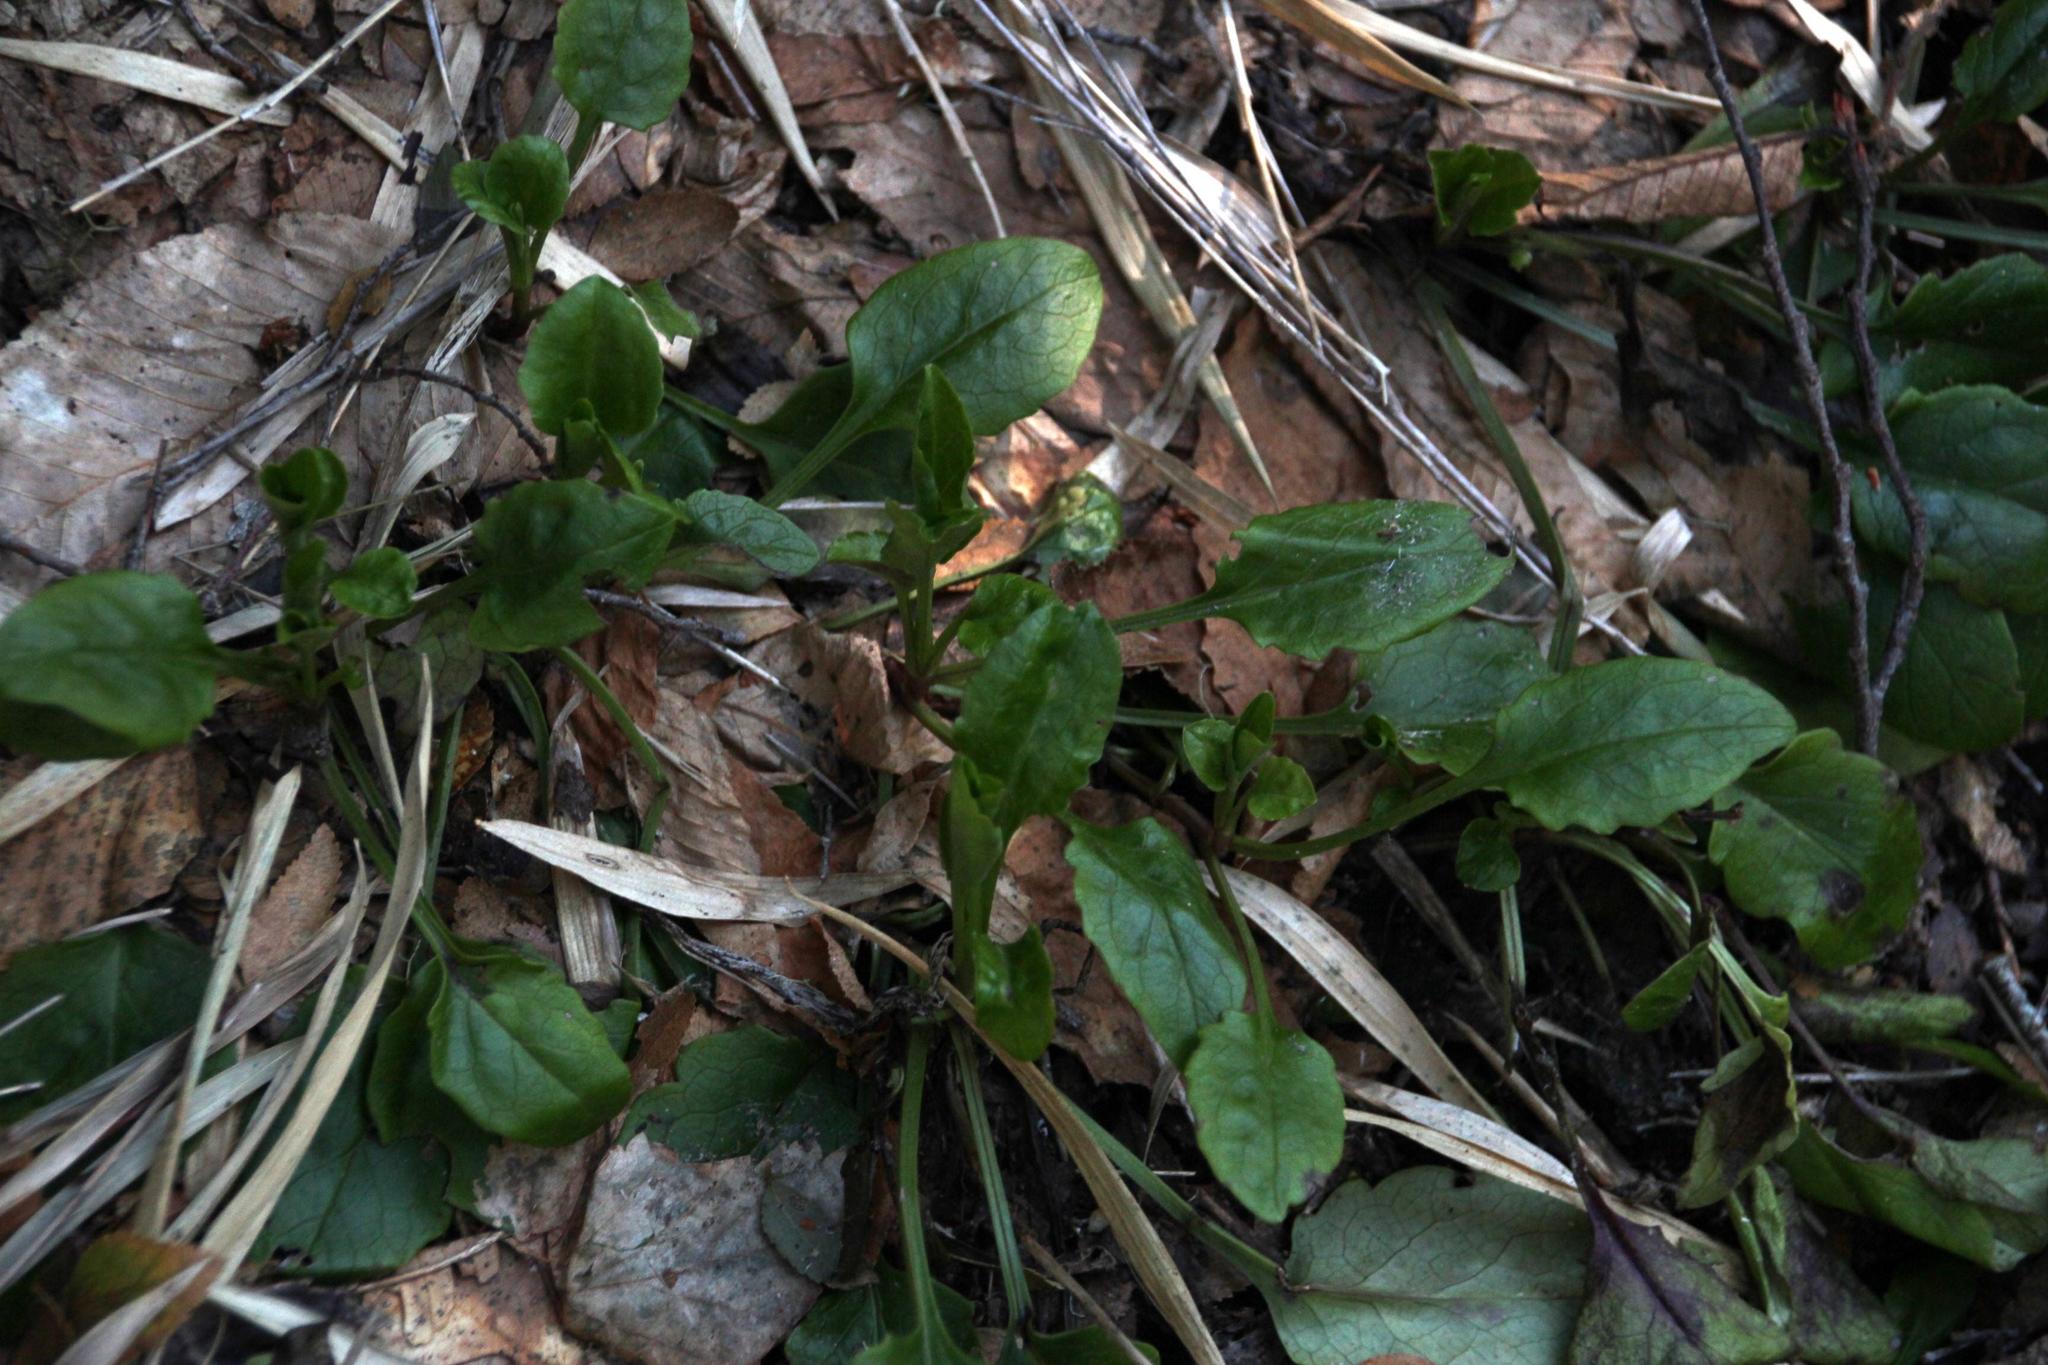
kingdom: Plantae
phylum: Tracheophyta
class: Magnoliopsida
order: Asterales
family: Asteraceae
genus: Adenocaulon
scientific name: Adenocaulon chilense
